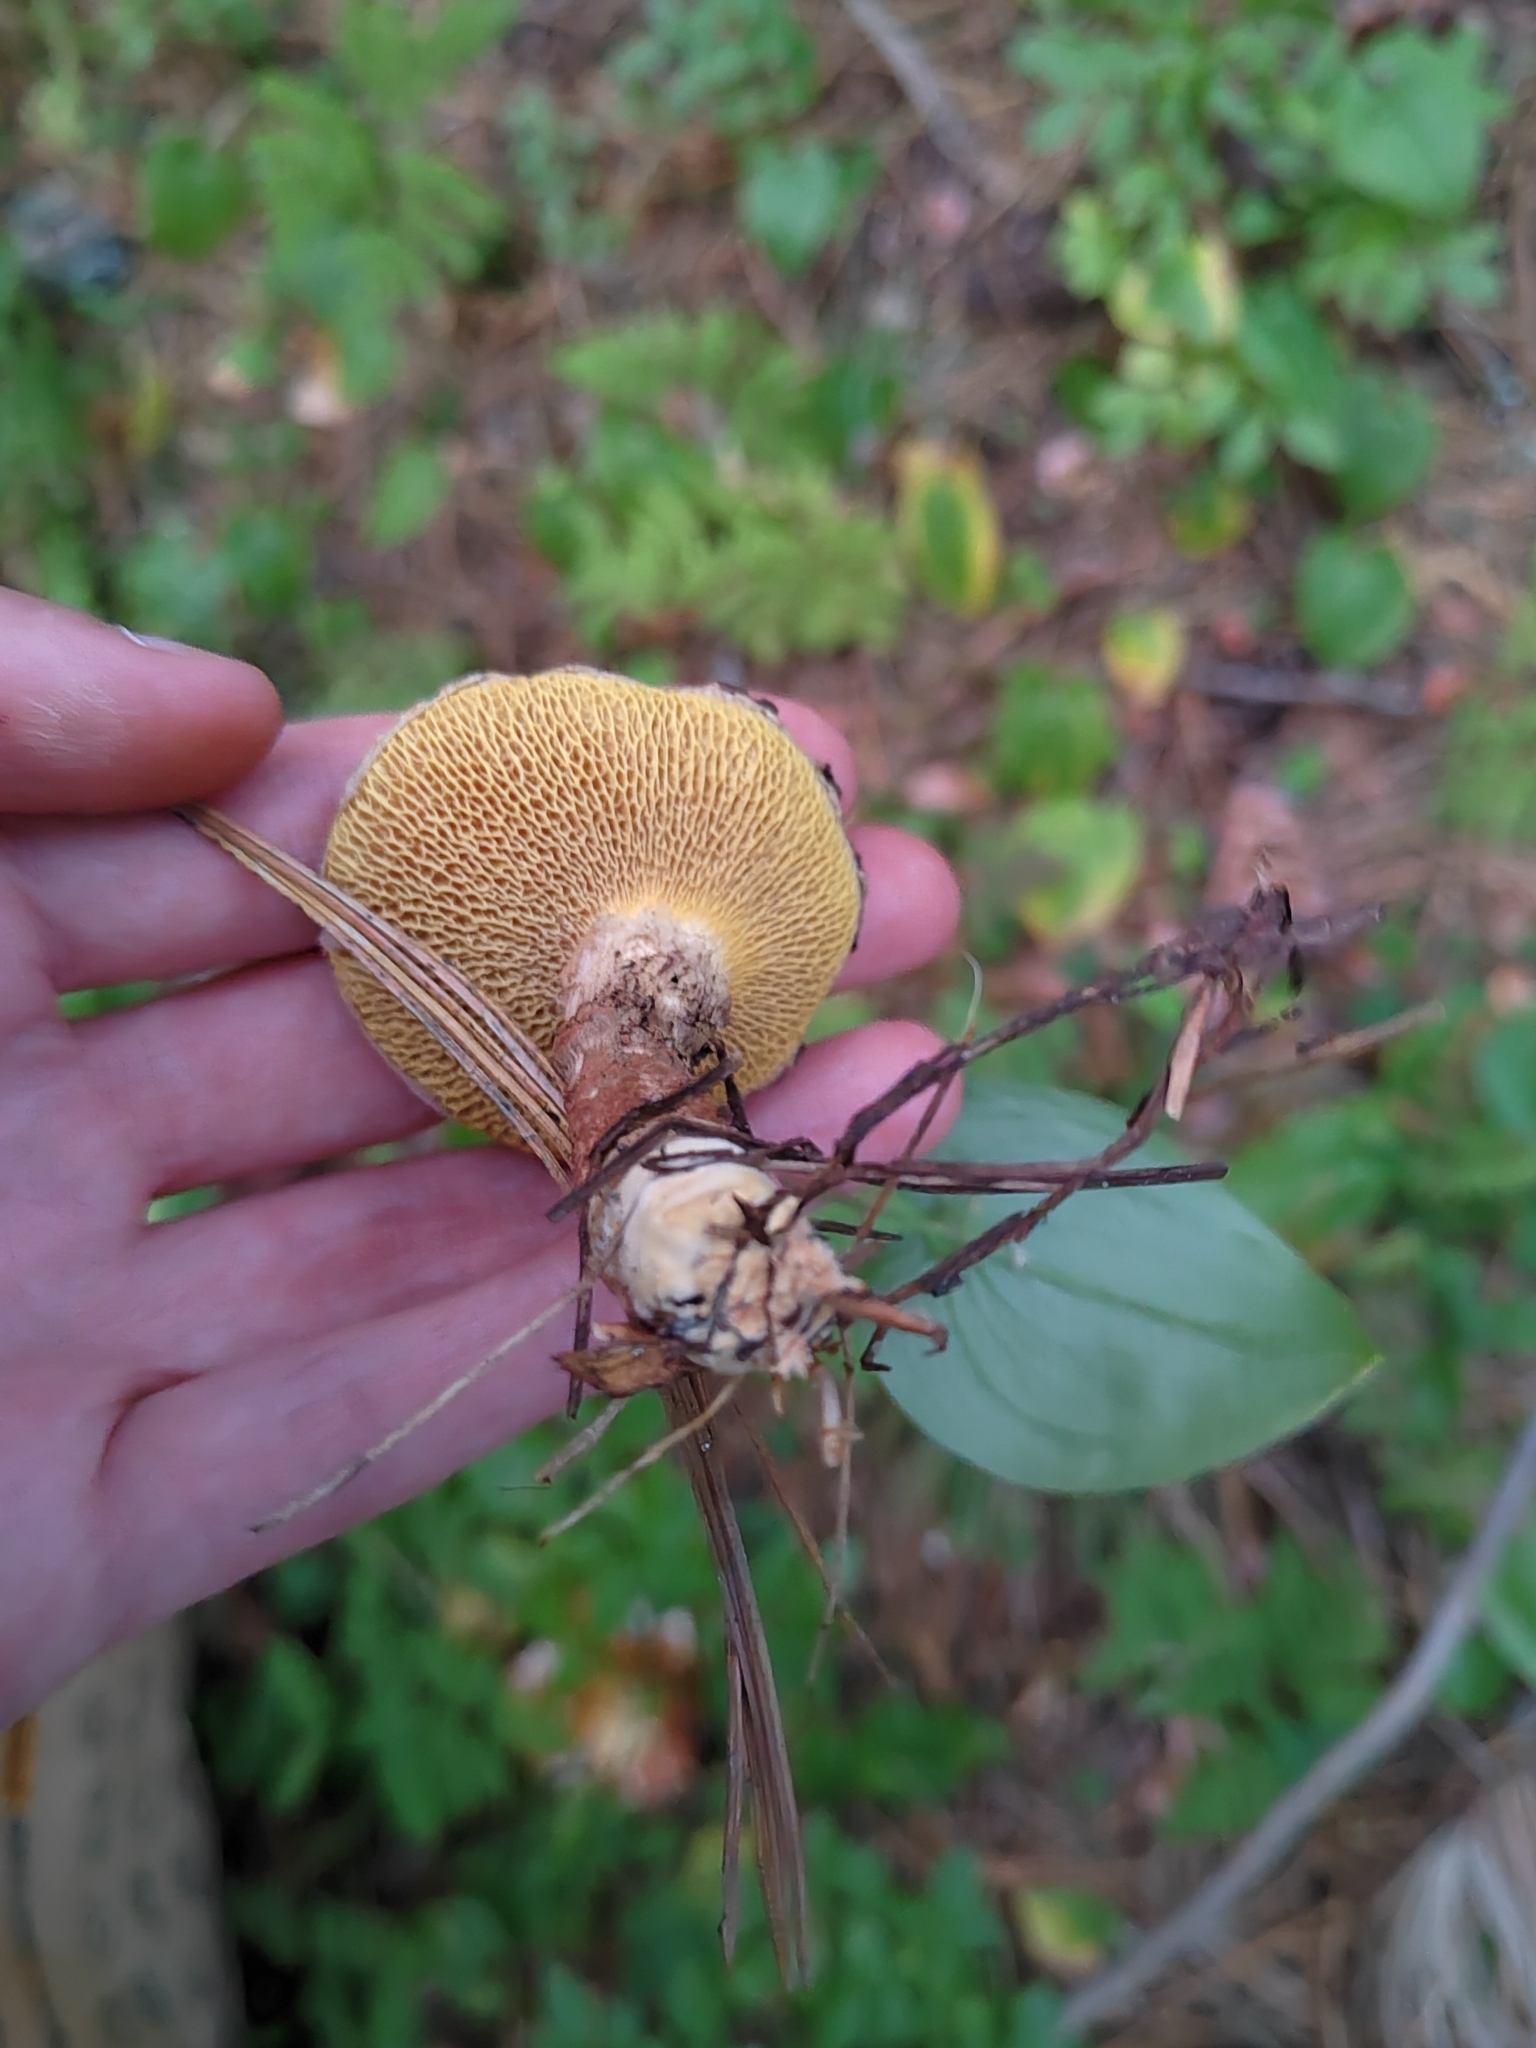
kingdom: Fungi
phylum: Basidiomycota
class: Agaricomycetes
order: Boletales
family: Suillaceae
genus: Suillus
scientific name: Suillus spraguei
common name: Painted suillus
